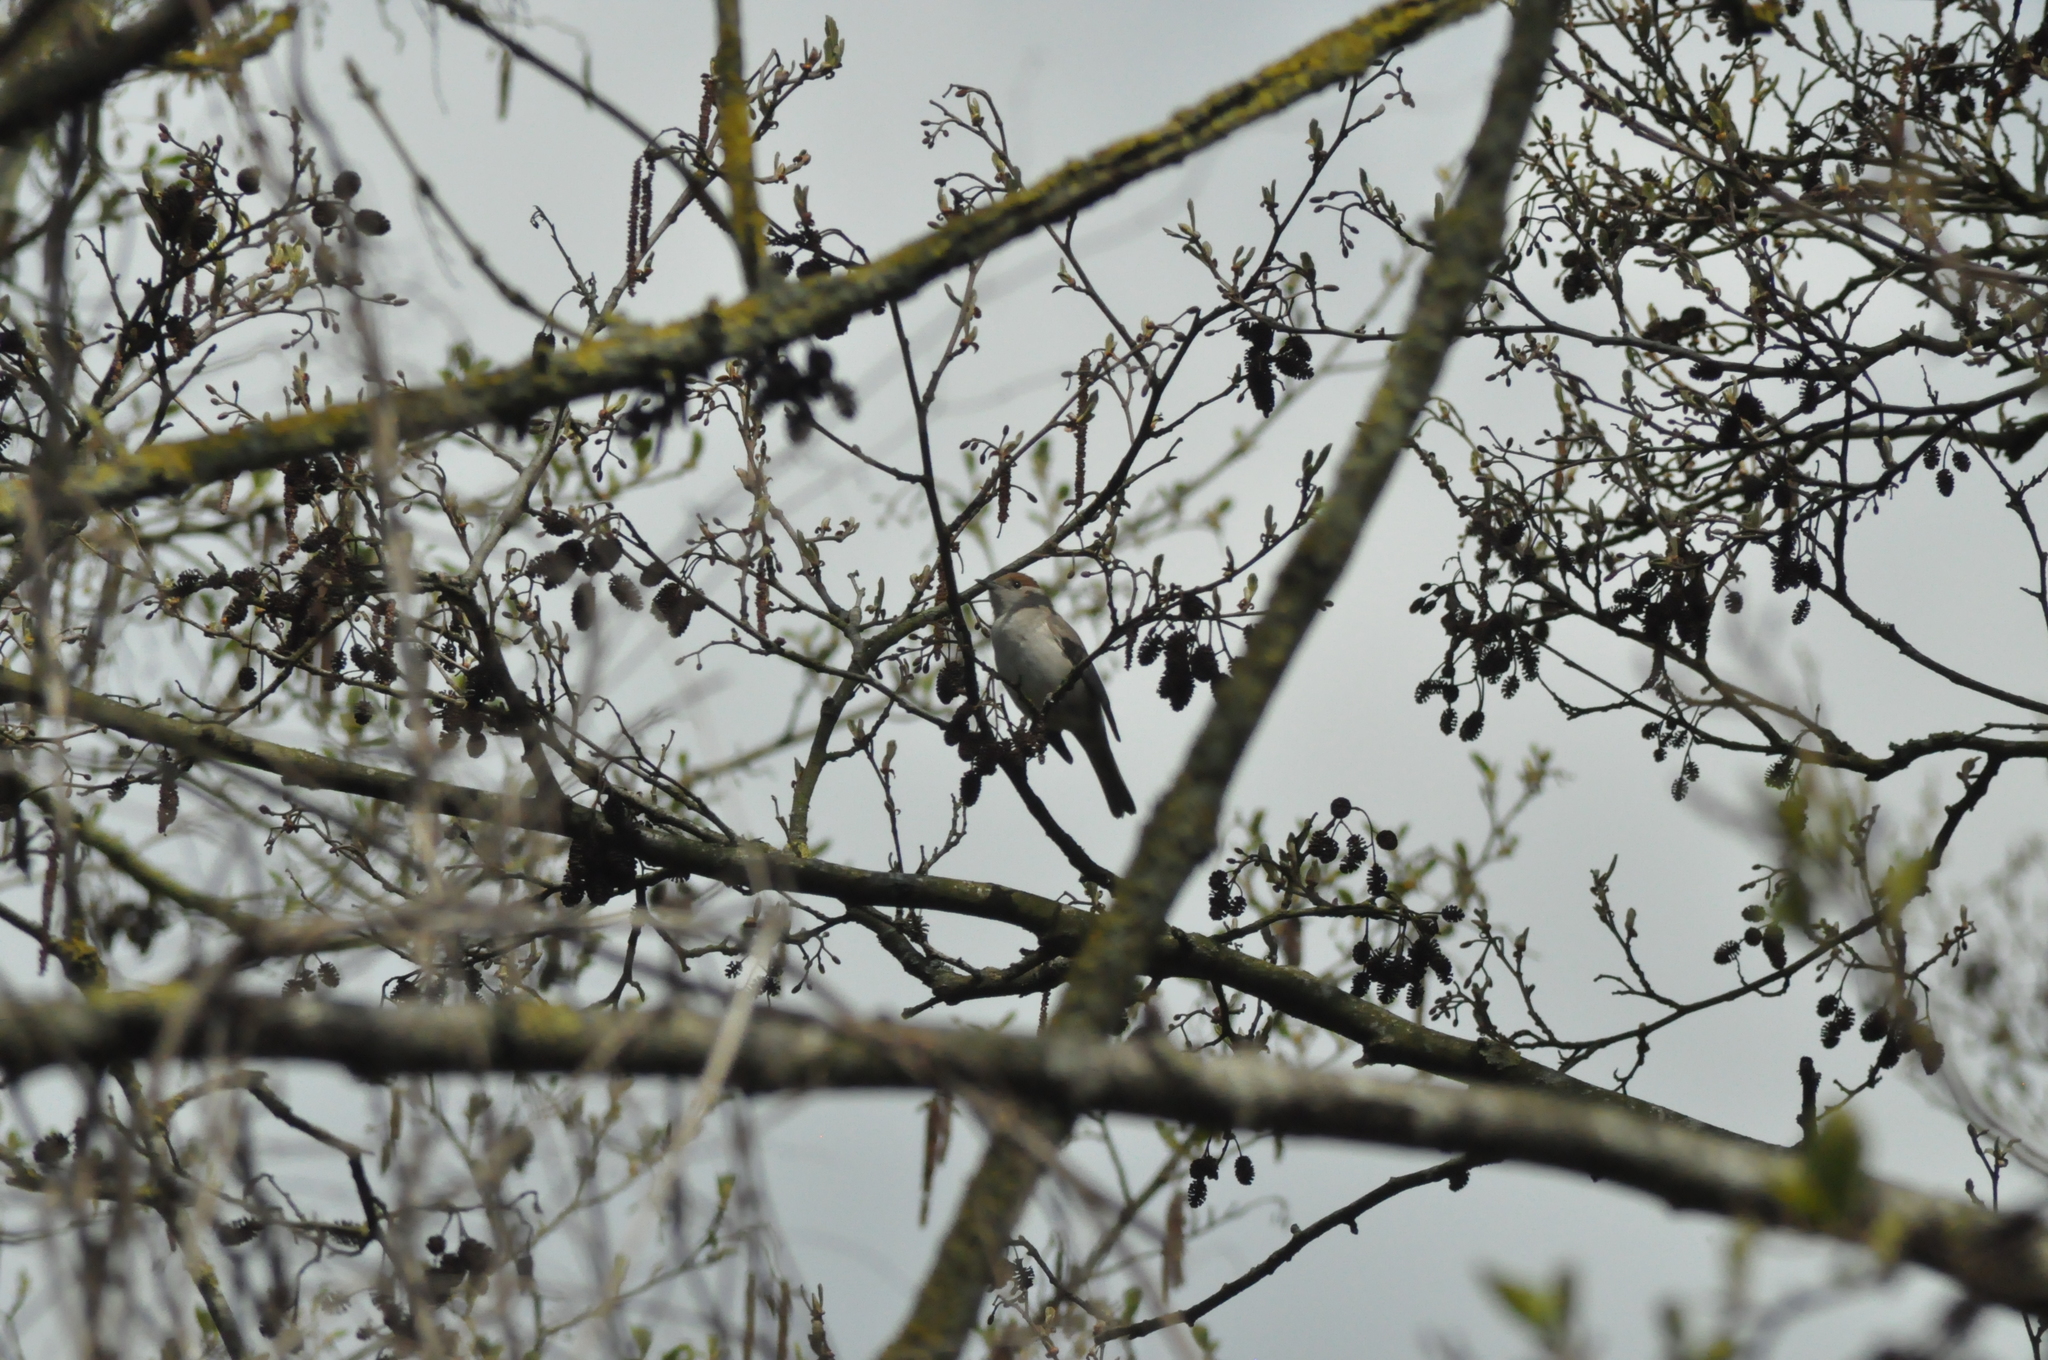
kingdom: Animalia
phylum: Chordata
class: Aves
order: Passeriformes
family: Sylviidae
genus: Sylvia
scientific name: Sylvia atricapilla
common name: Eurasian blackcap
